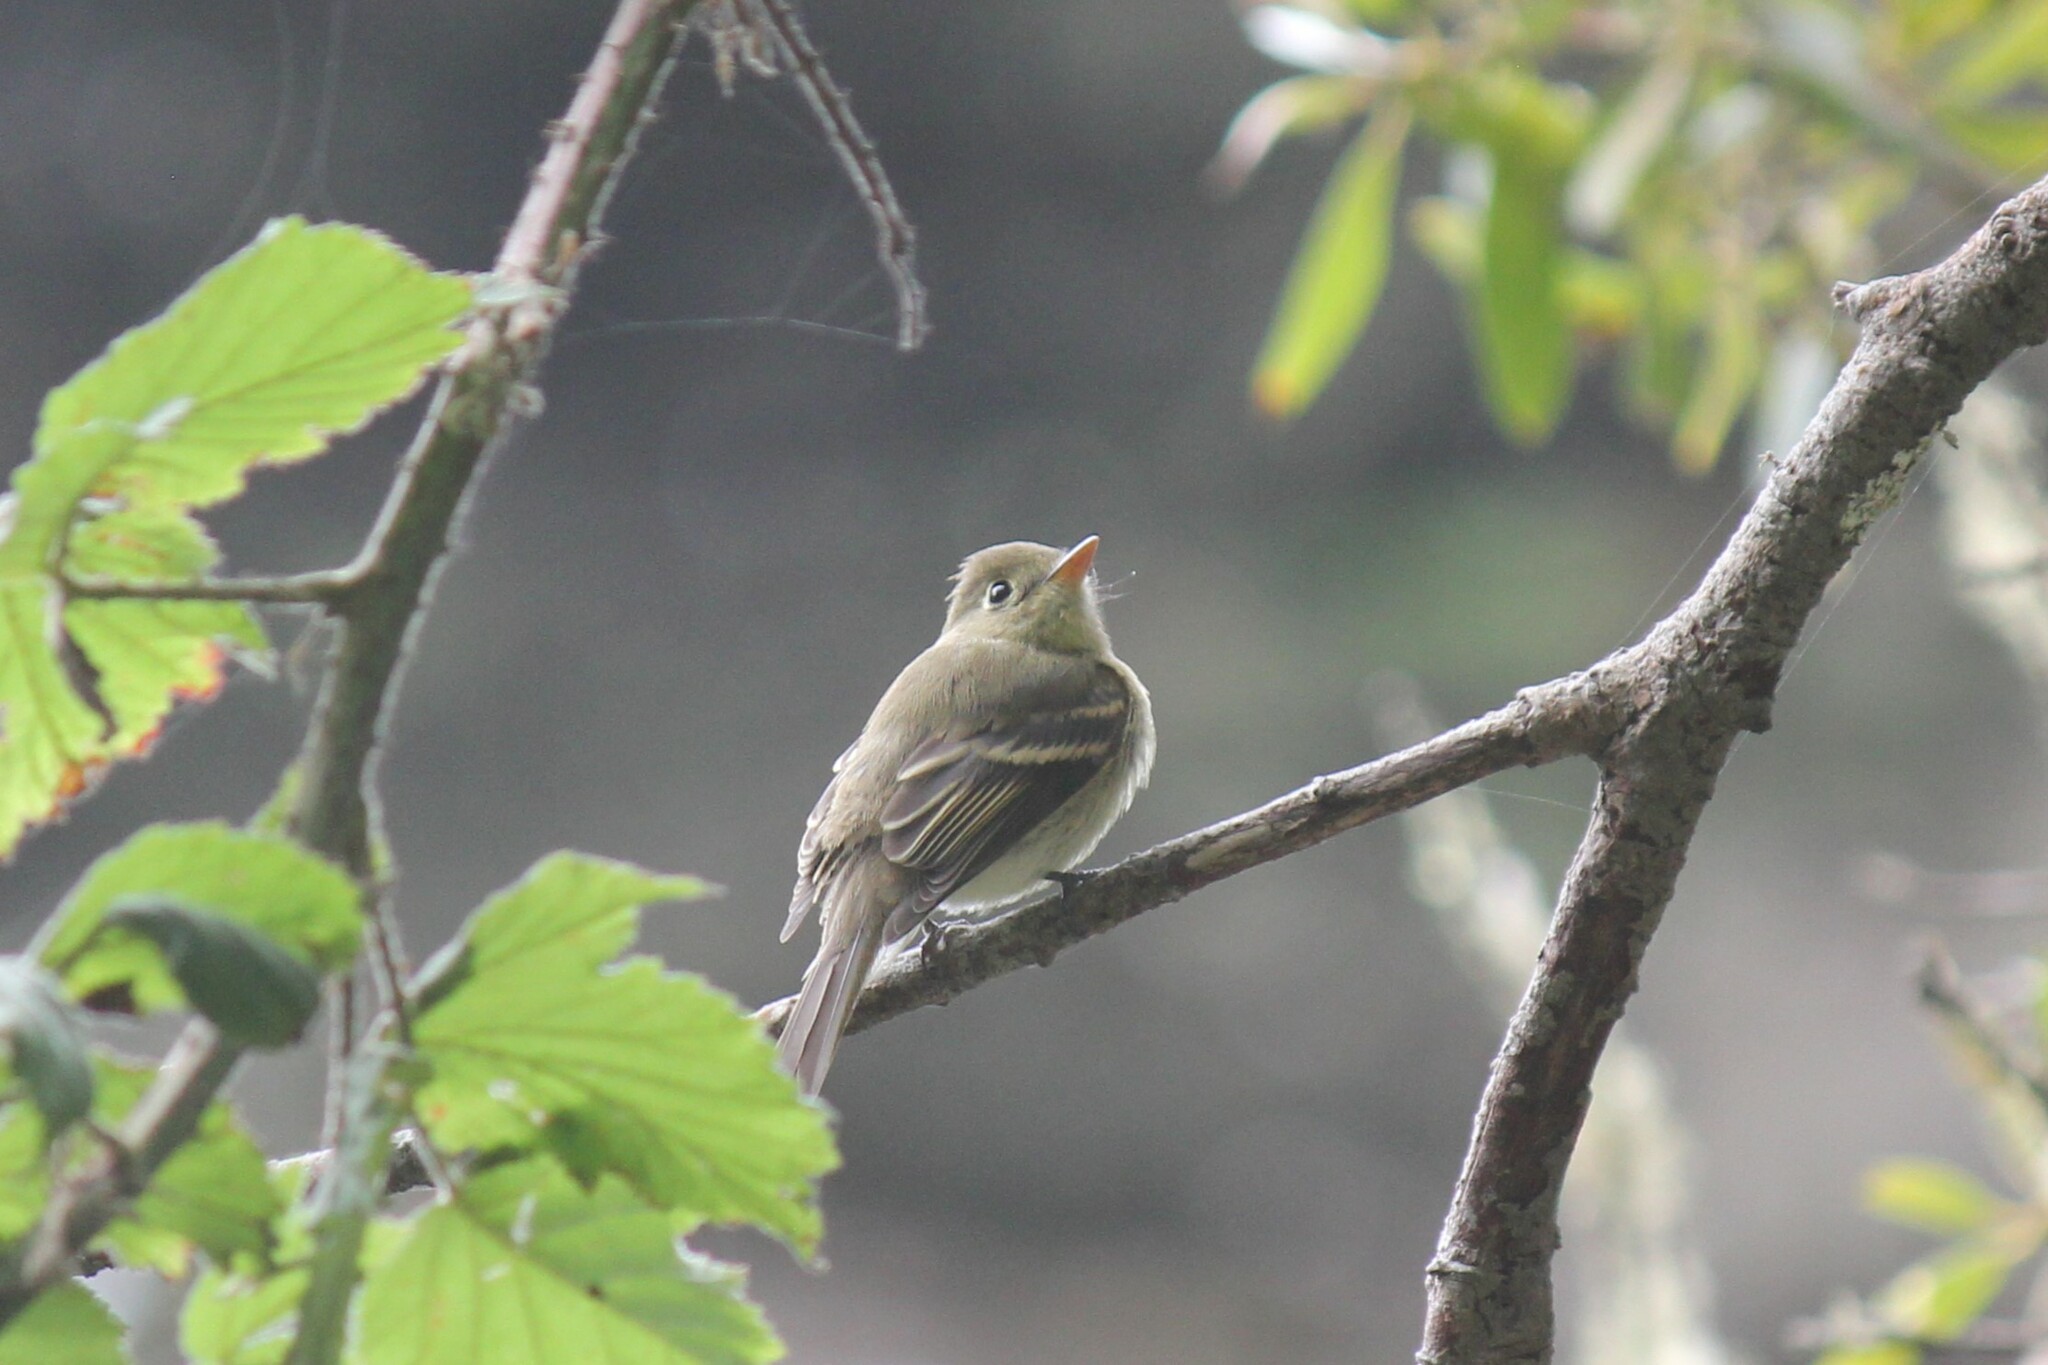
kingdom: Animalia
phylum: Chordata
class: Aves
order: Passeriformes
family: Tyrannidae
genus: Empidonax
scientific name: Empidonax difficilis
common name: Pacific-slope flycatcher
